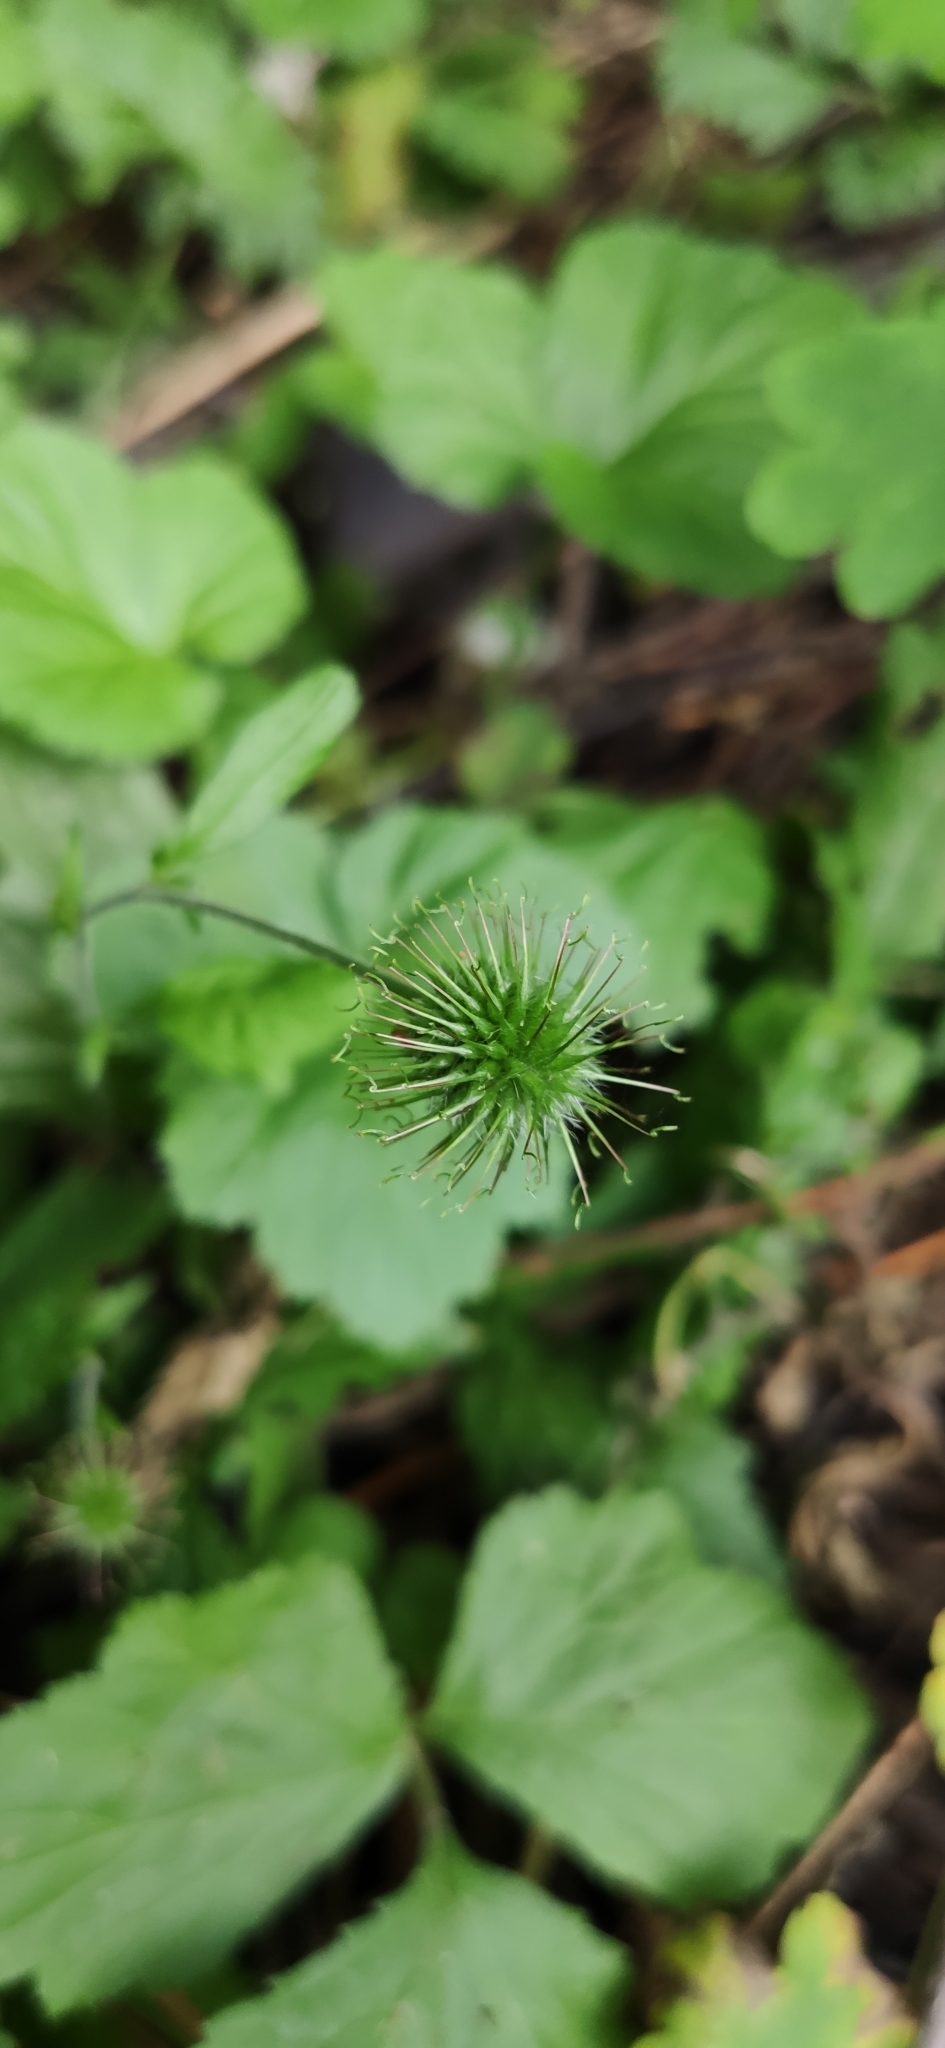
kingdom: Plantae
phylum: Tracheophyta
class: Magnoliopsida
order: Rosales
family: Rosaceae
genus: Geum
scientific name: Geum urbanum
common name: Wood avens
